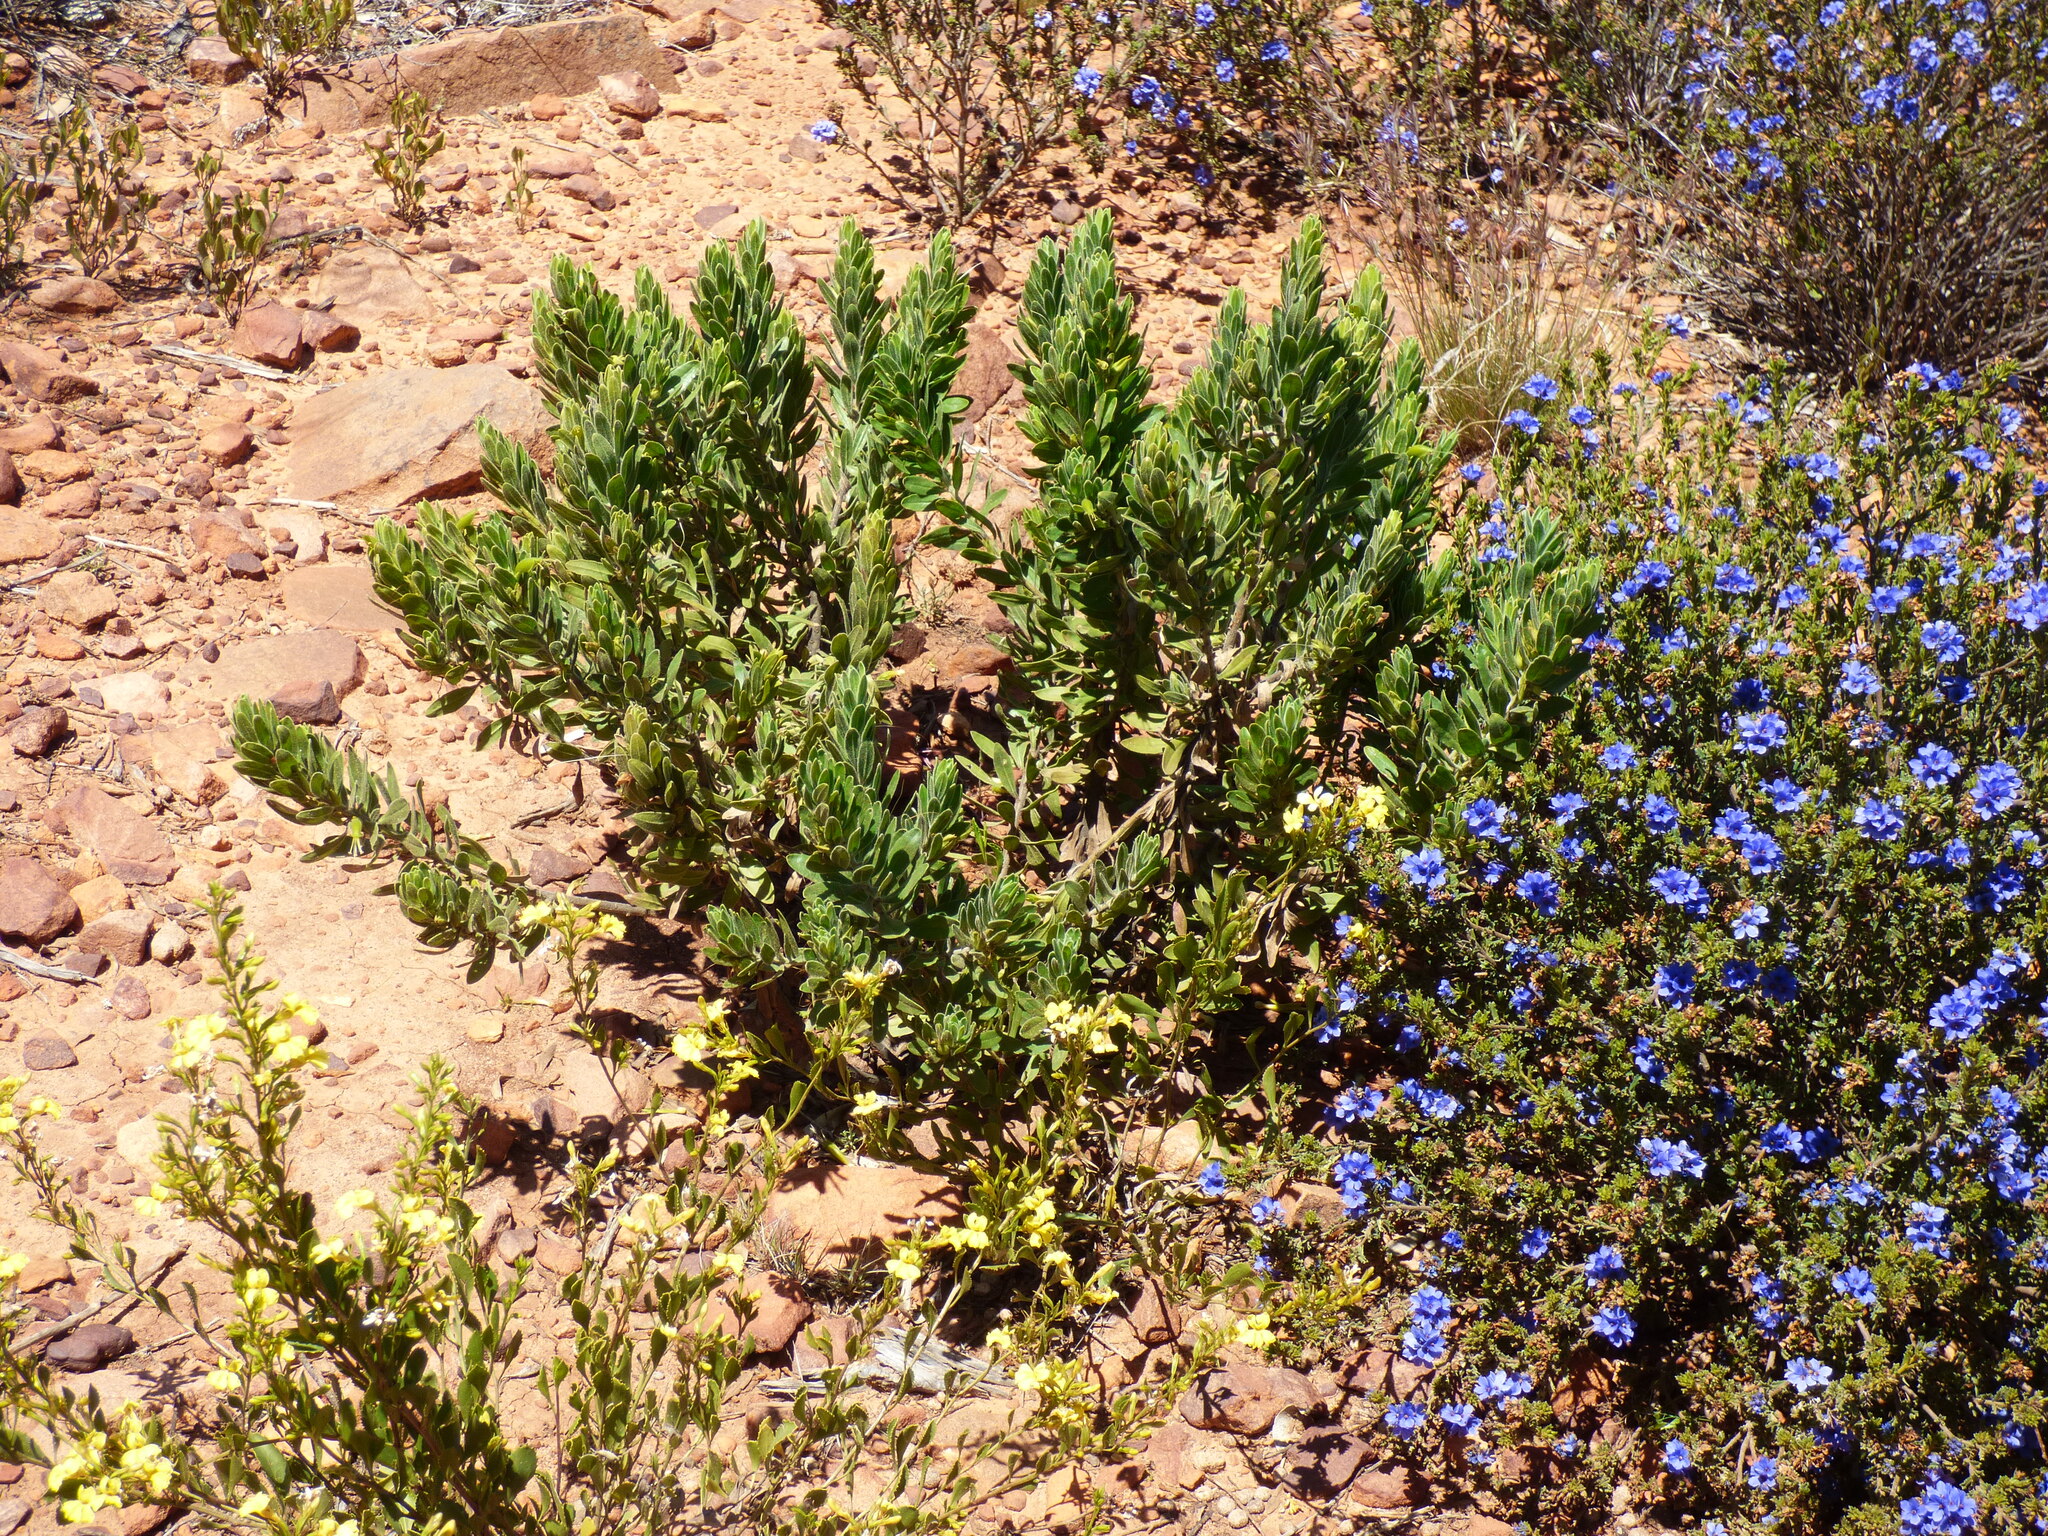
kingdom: Plantae
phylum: Tracheophyta
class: Magnoliopsida
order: Lamiales
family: Scrophulariaceae
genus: Eremophila
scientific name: Eremophila subfloccosa
